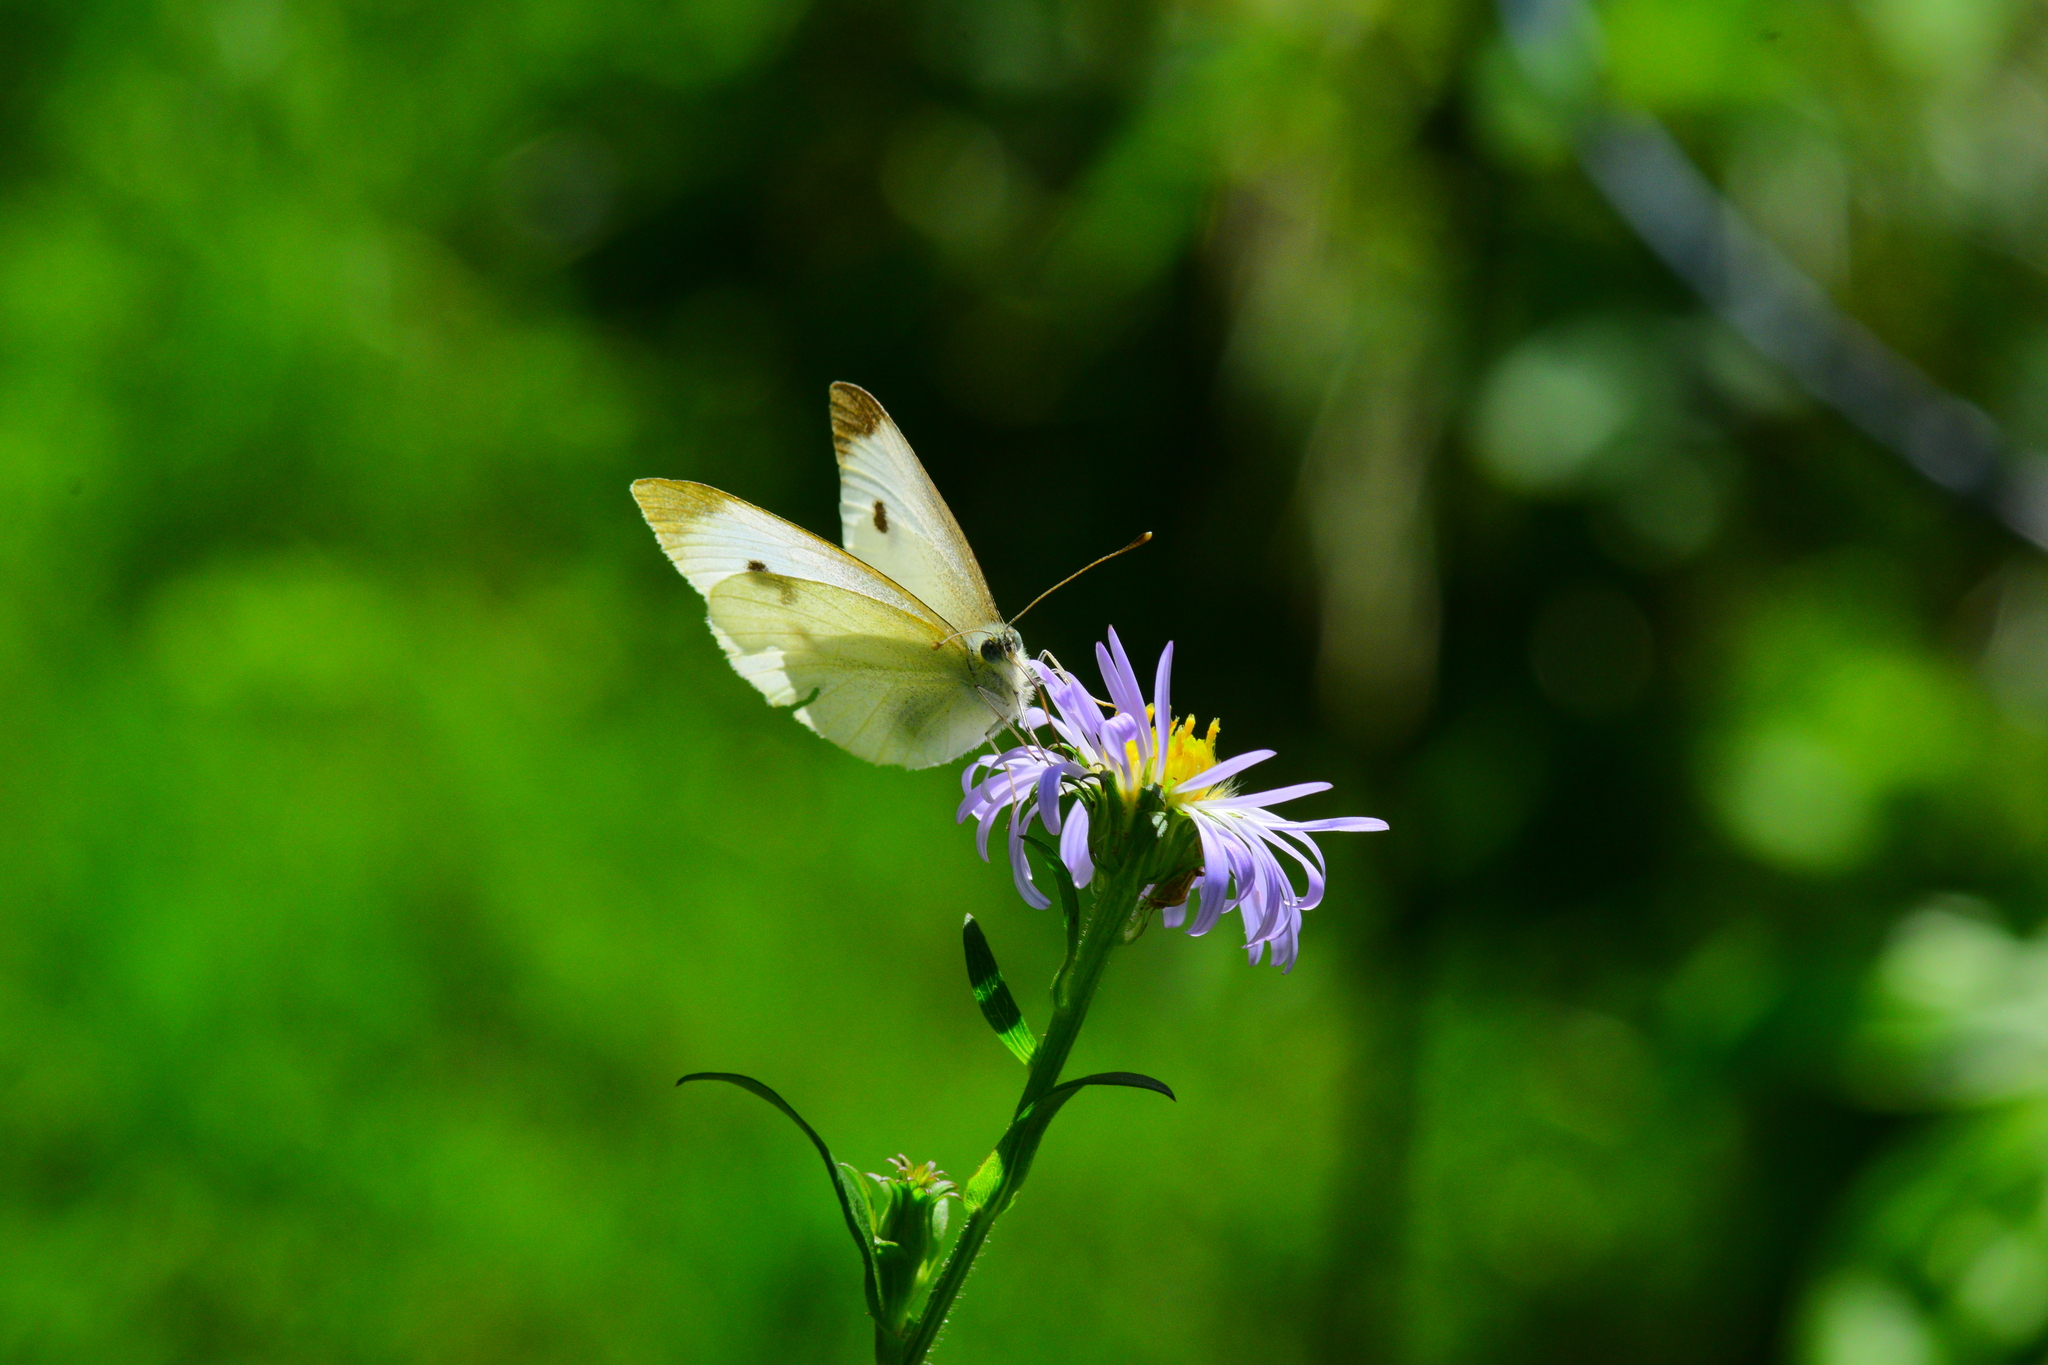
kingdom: Animalia
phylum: Arthropoda
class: Insecta
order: Lepidoptera
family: Pieridae
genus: Pieris
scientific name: Pieris rapae
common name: Small white
